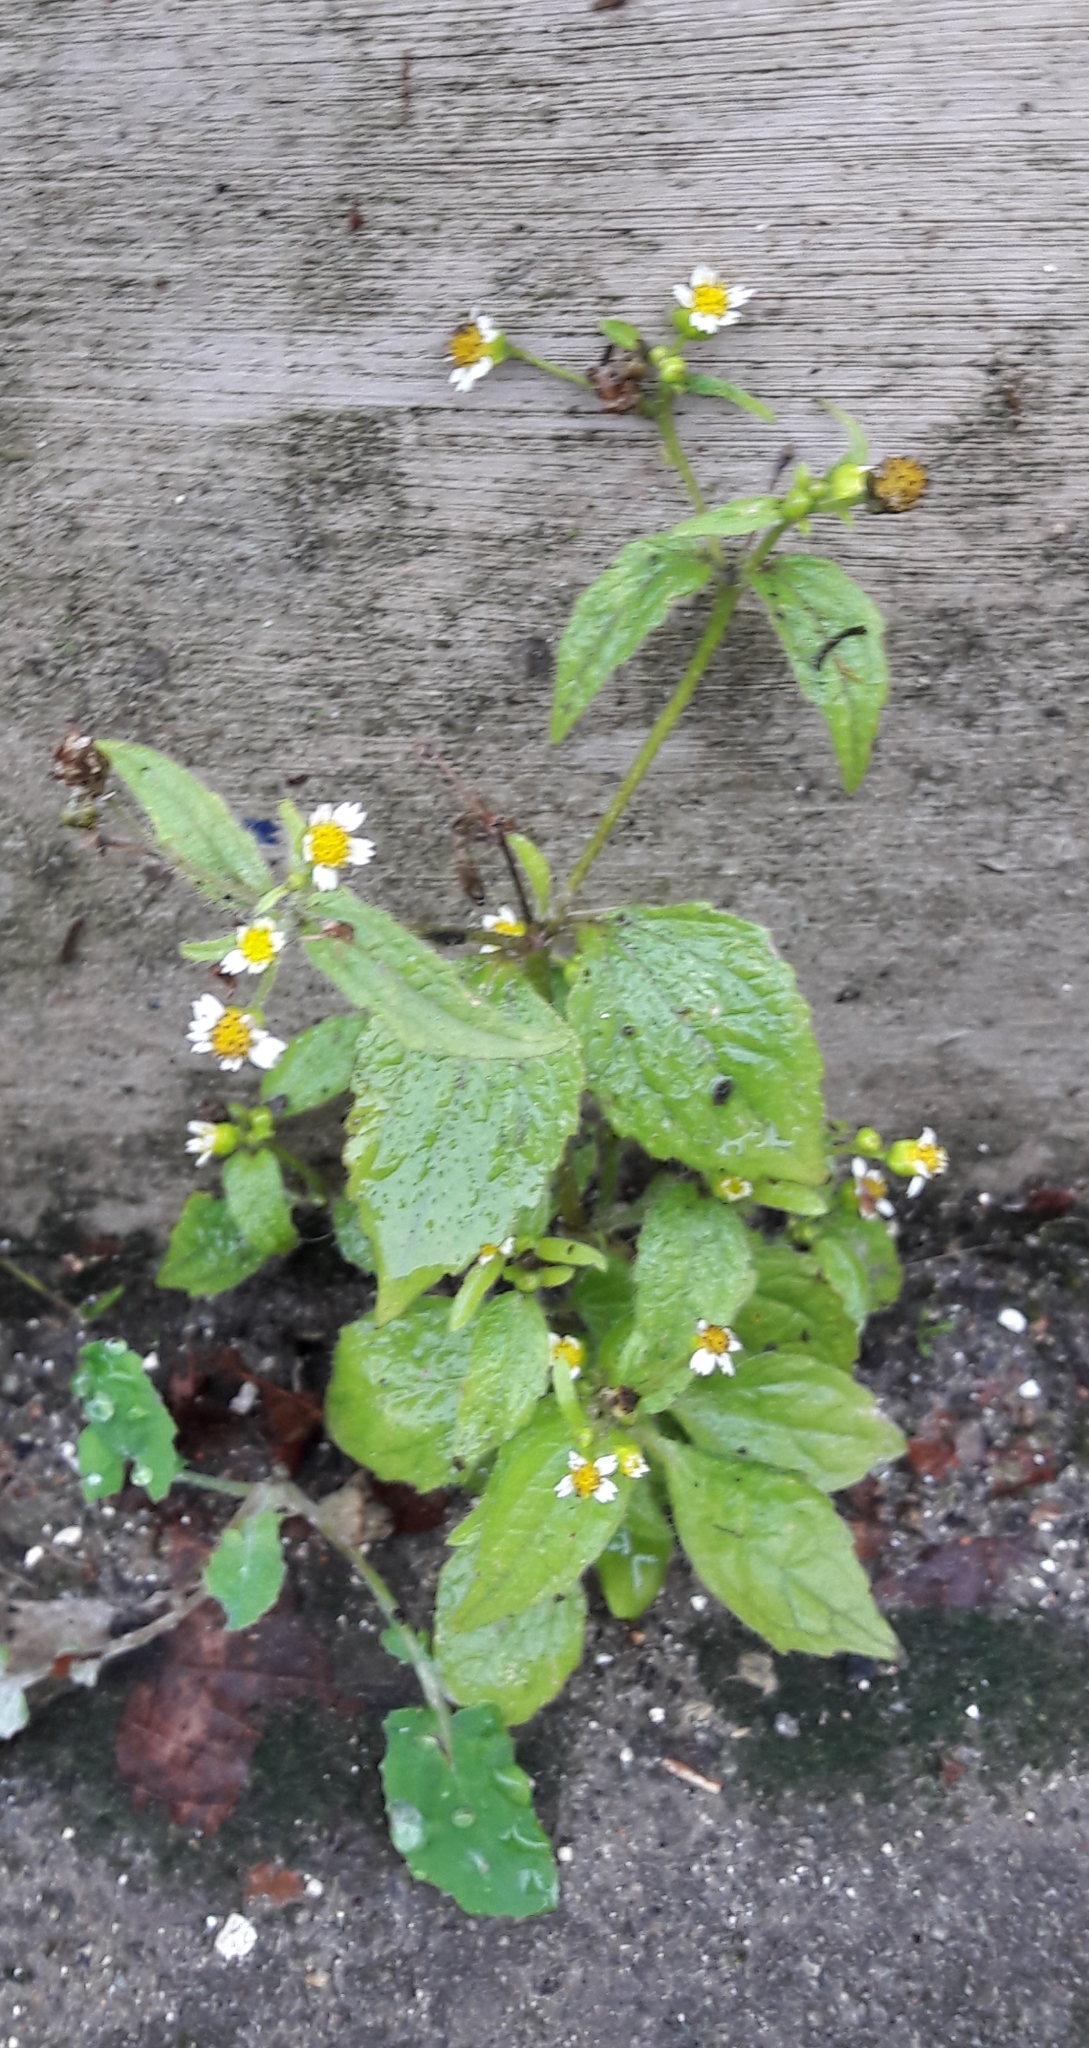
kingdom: Plantae
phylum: Tracheophyta
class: Magnoliopsida
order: Asterales
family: Asteraceae
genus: Galinsoga
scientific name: Galinsoga quadriradiata
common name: Shaggy soldier
